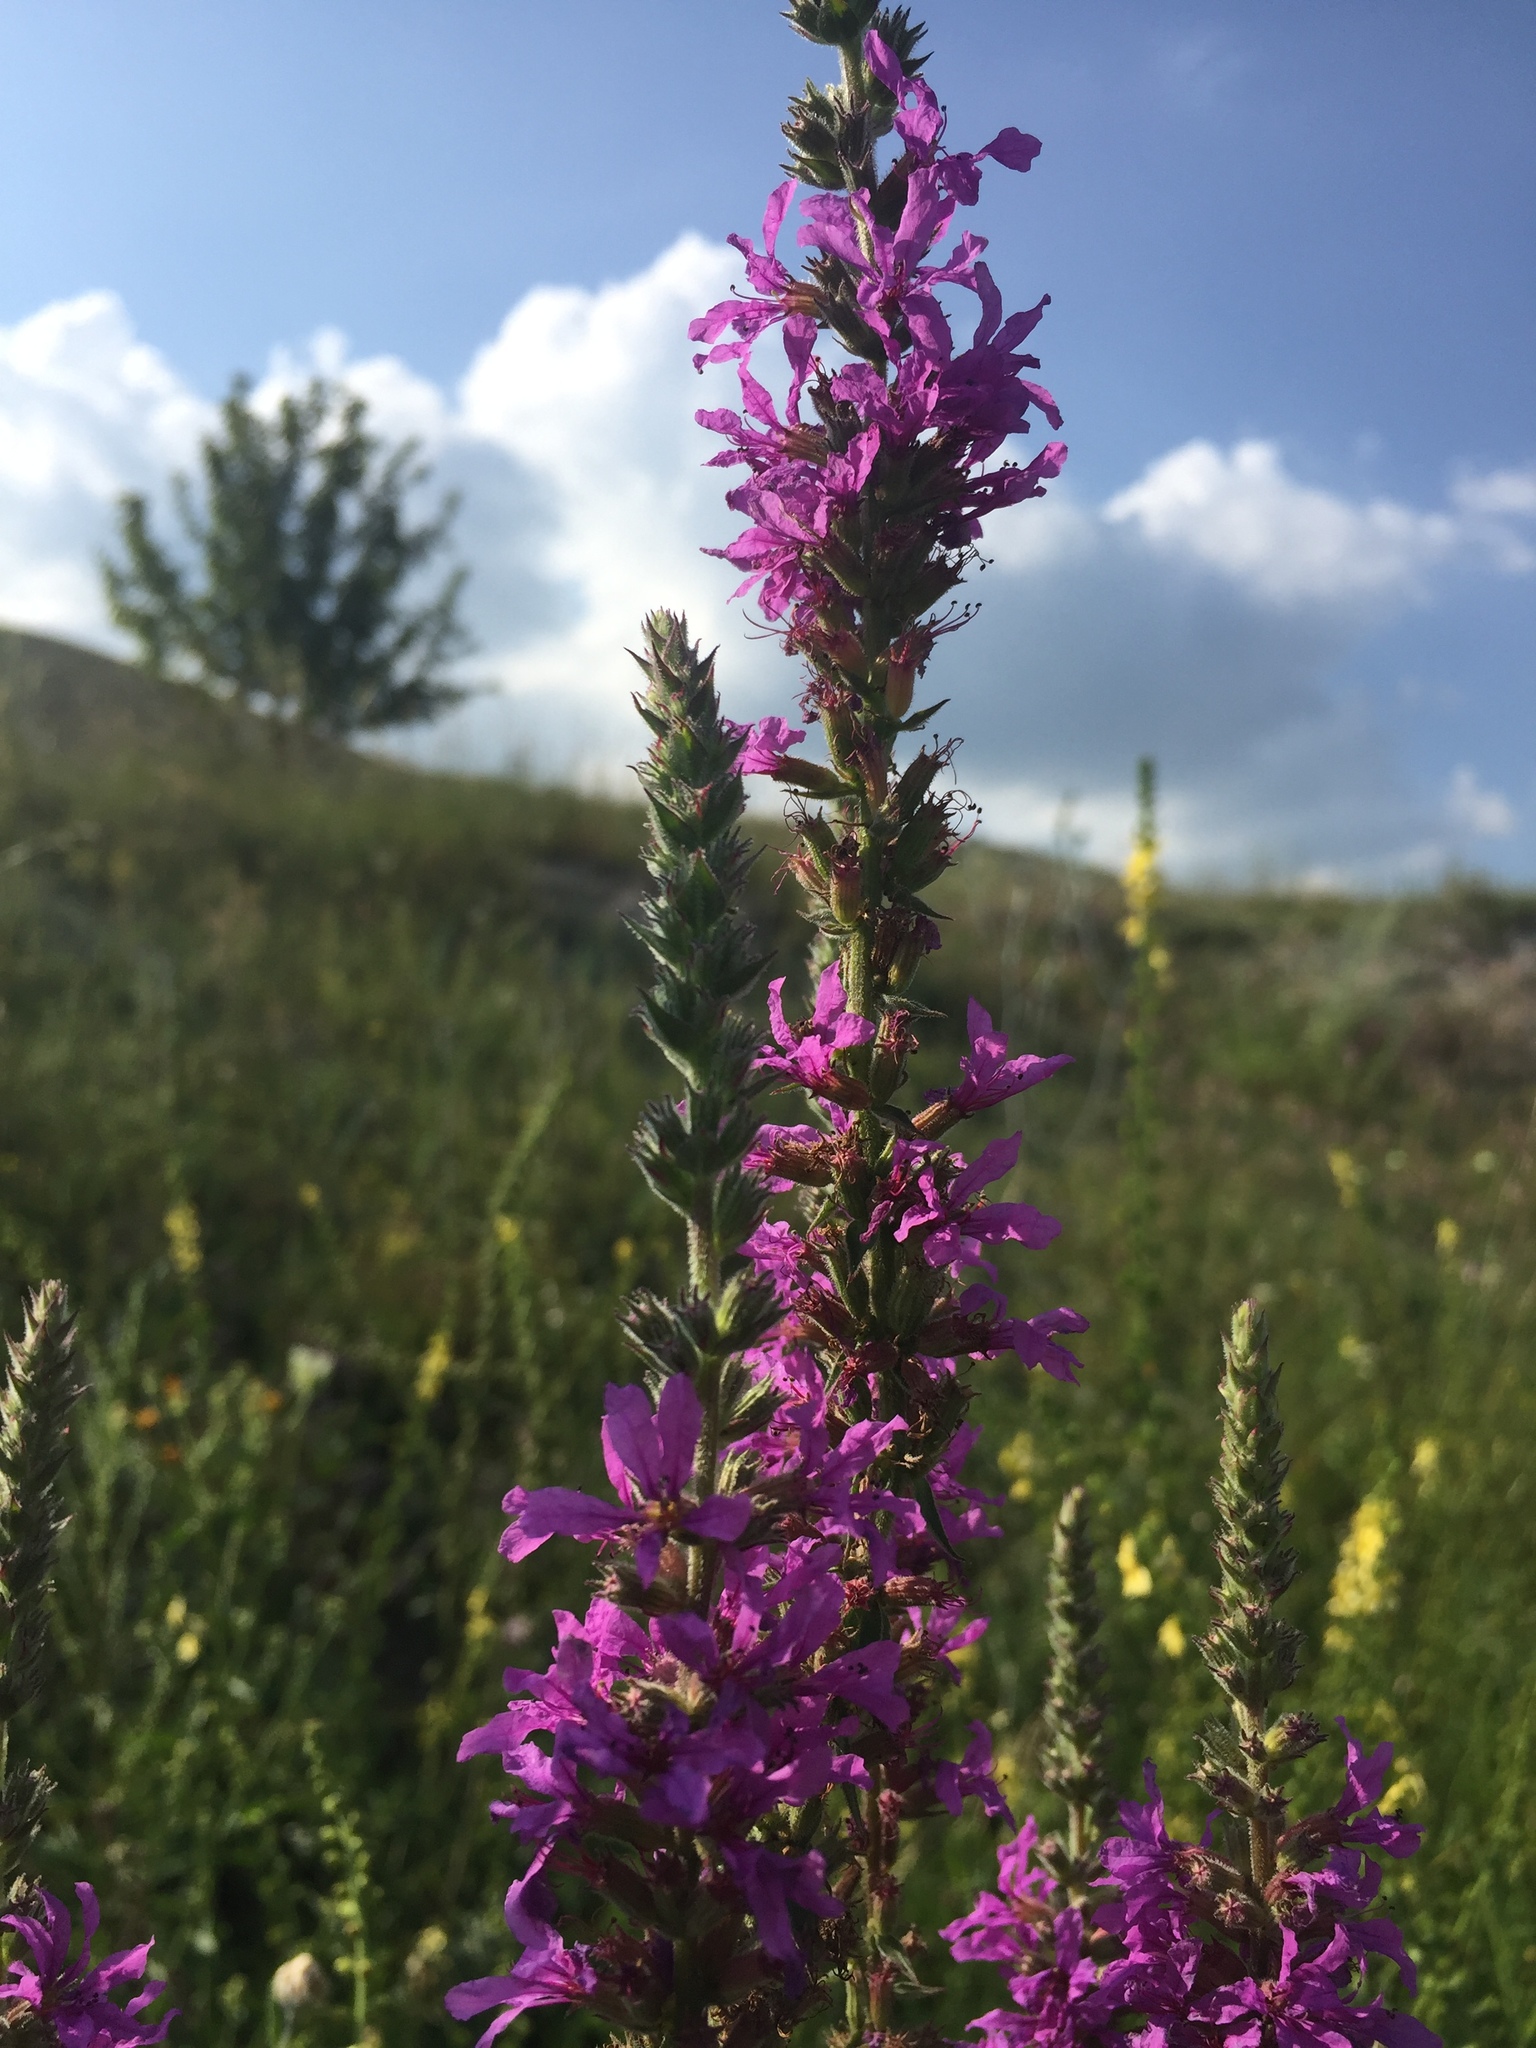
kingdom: Plantae
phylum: Tracheophyta
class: Magnoliopsida
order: Myrtales
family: Lythraceae
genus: Lythrum
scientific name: Lythrum salicaria
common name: Purple loosestrife
